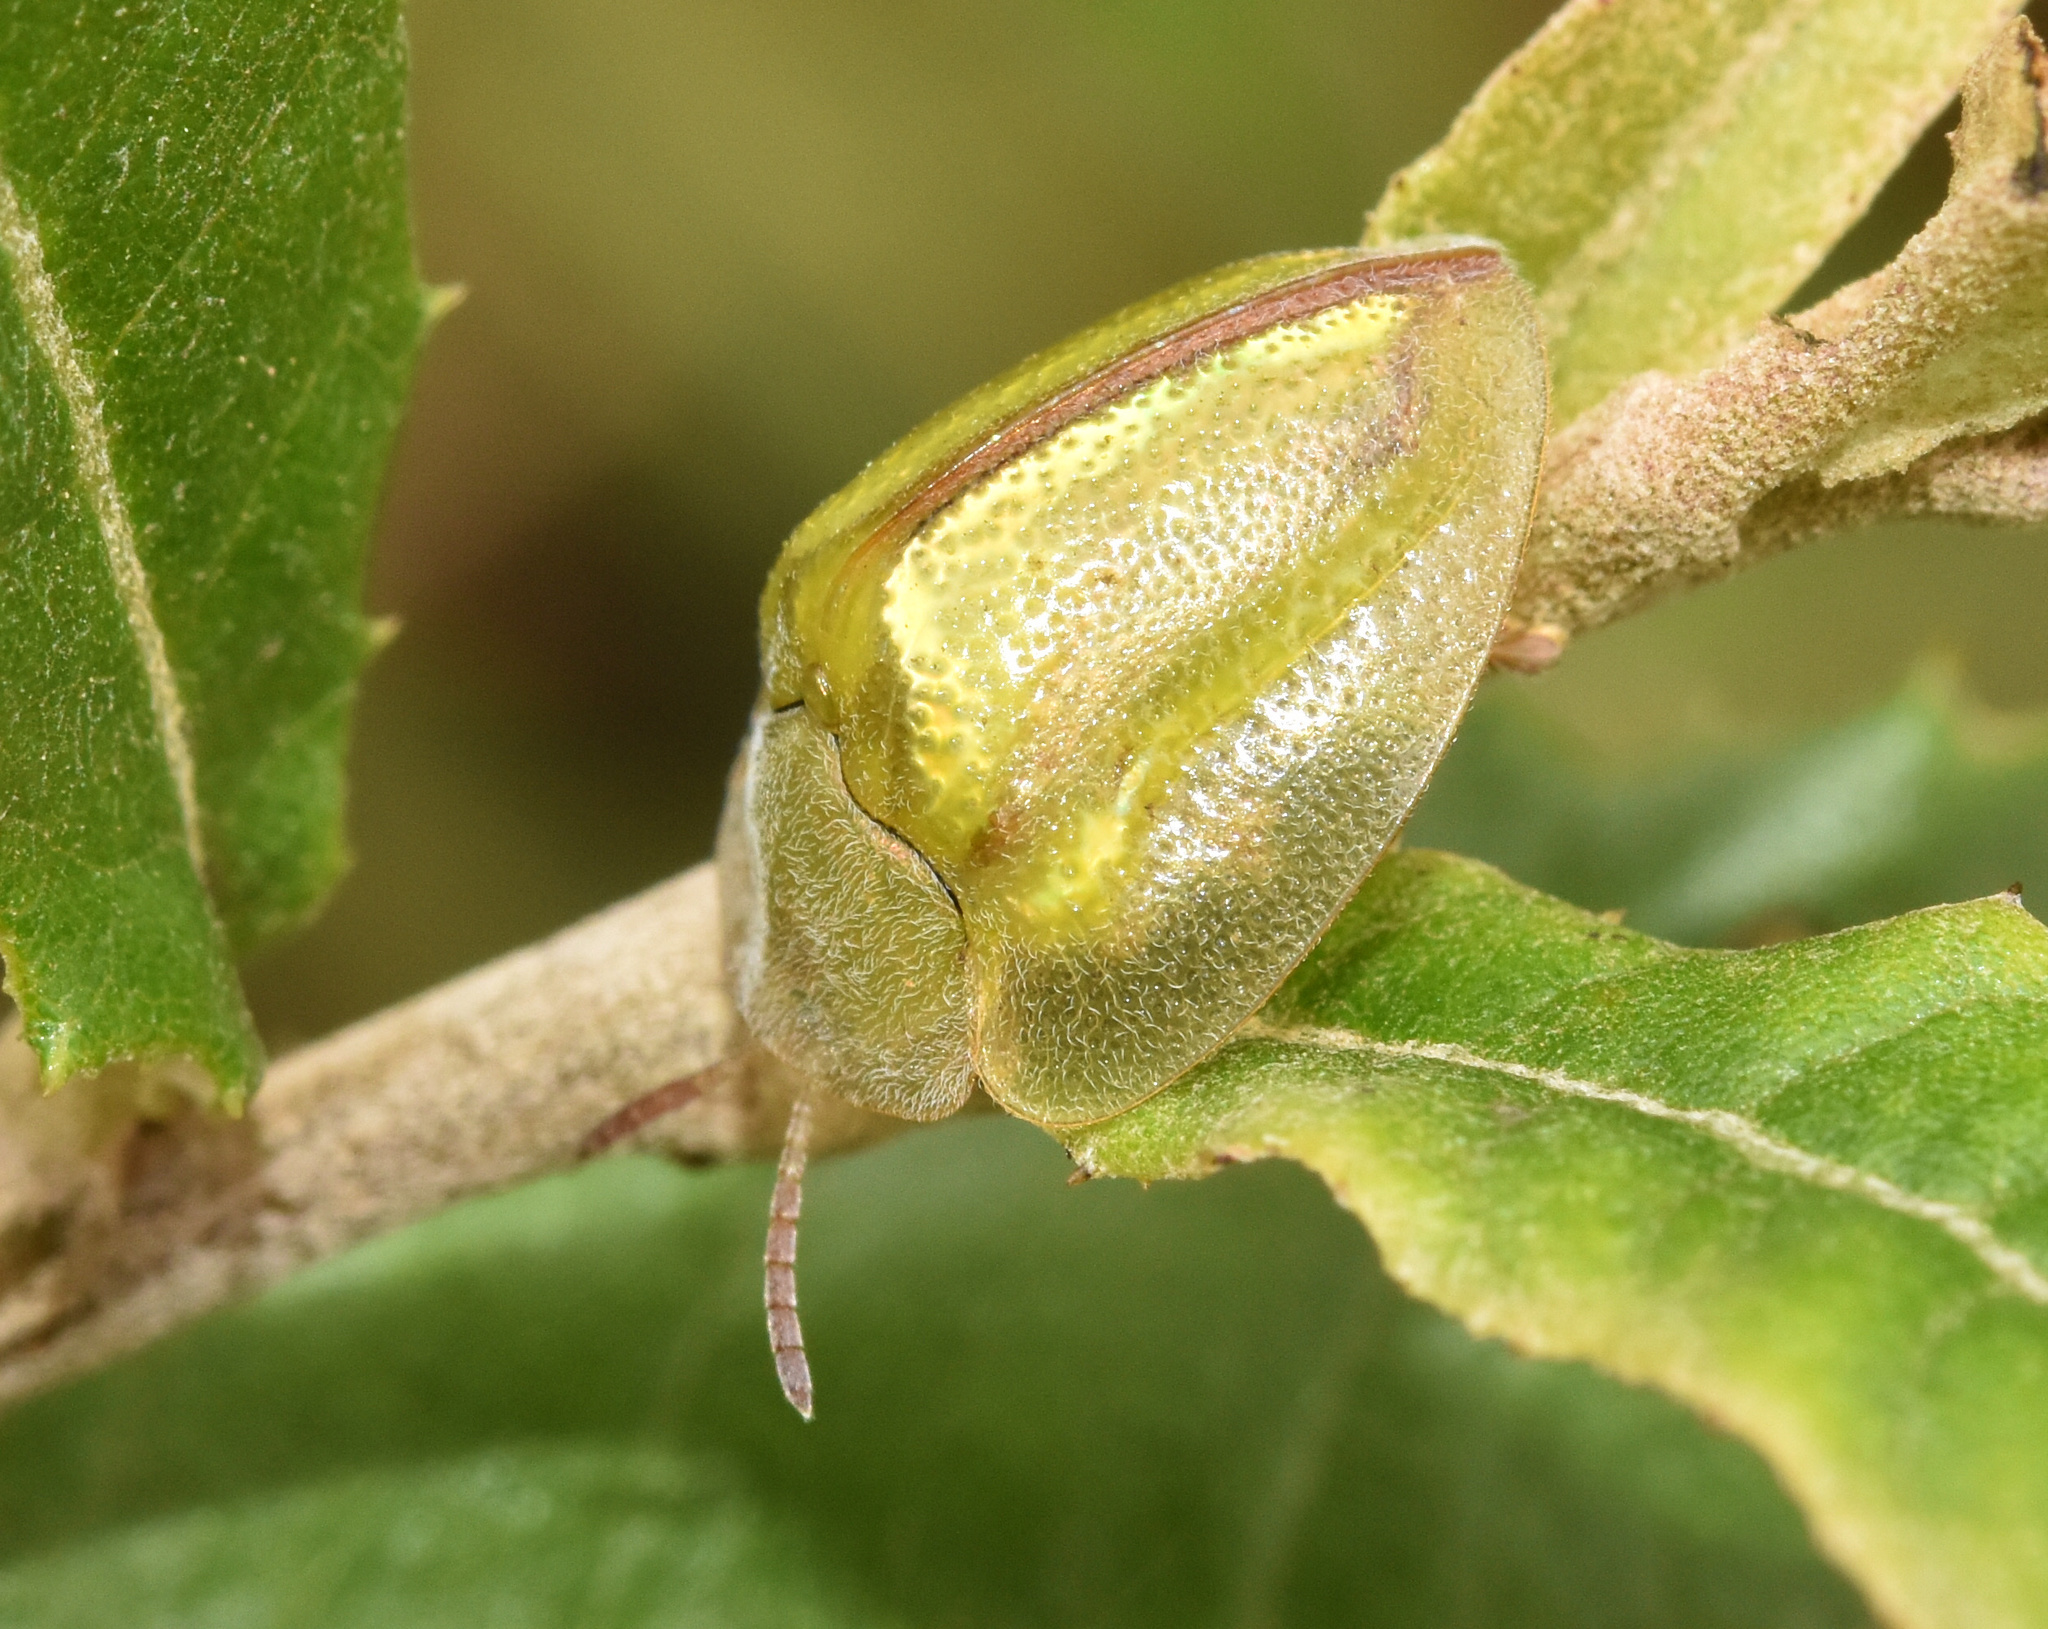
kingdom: Animalia
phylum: Arthropoda
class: Insecta
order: Coleoptera
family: Chrysomelidae
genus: Basipta
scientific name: Basipta stolida
